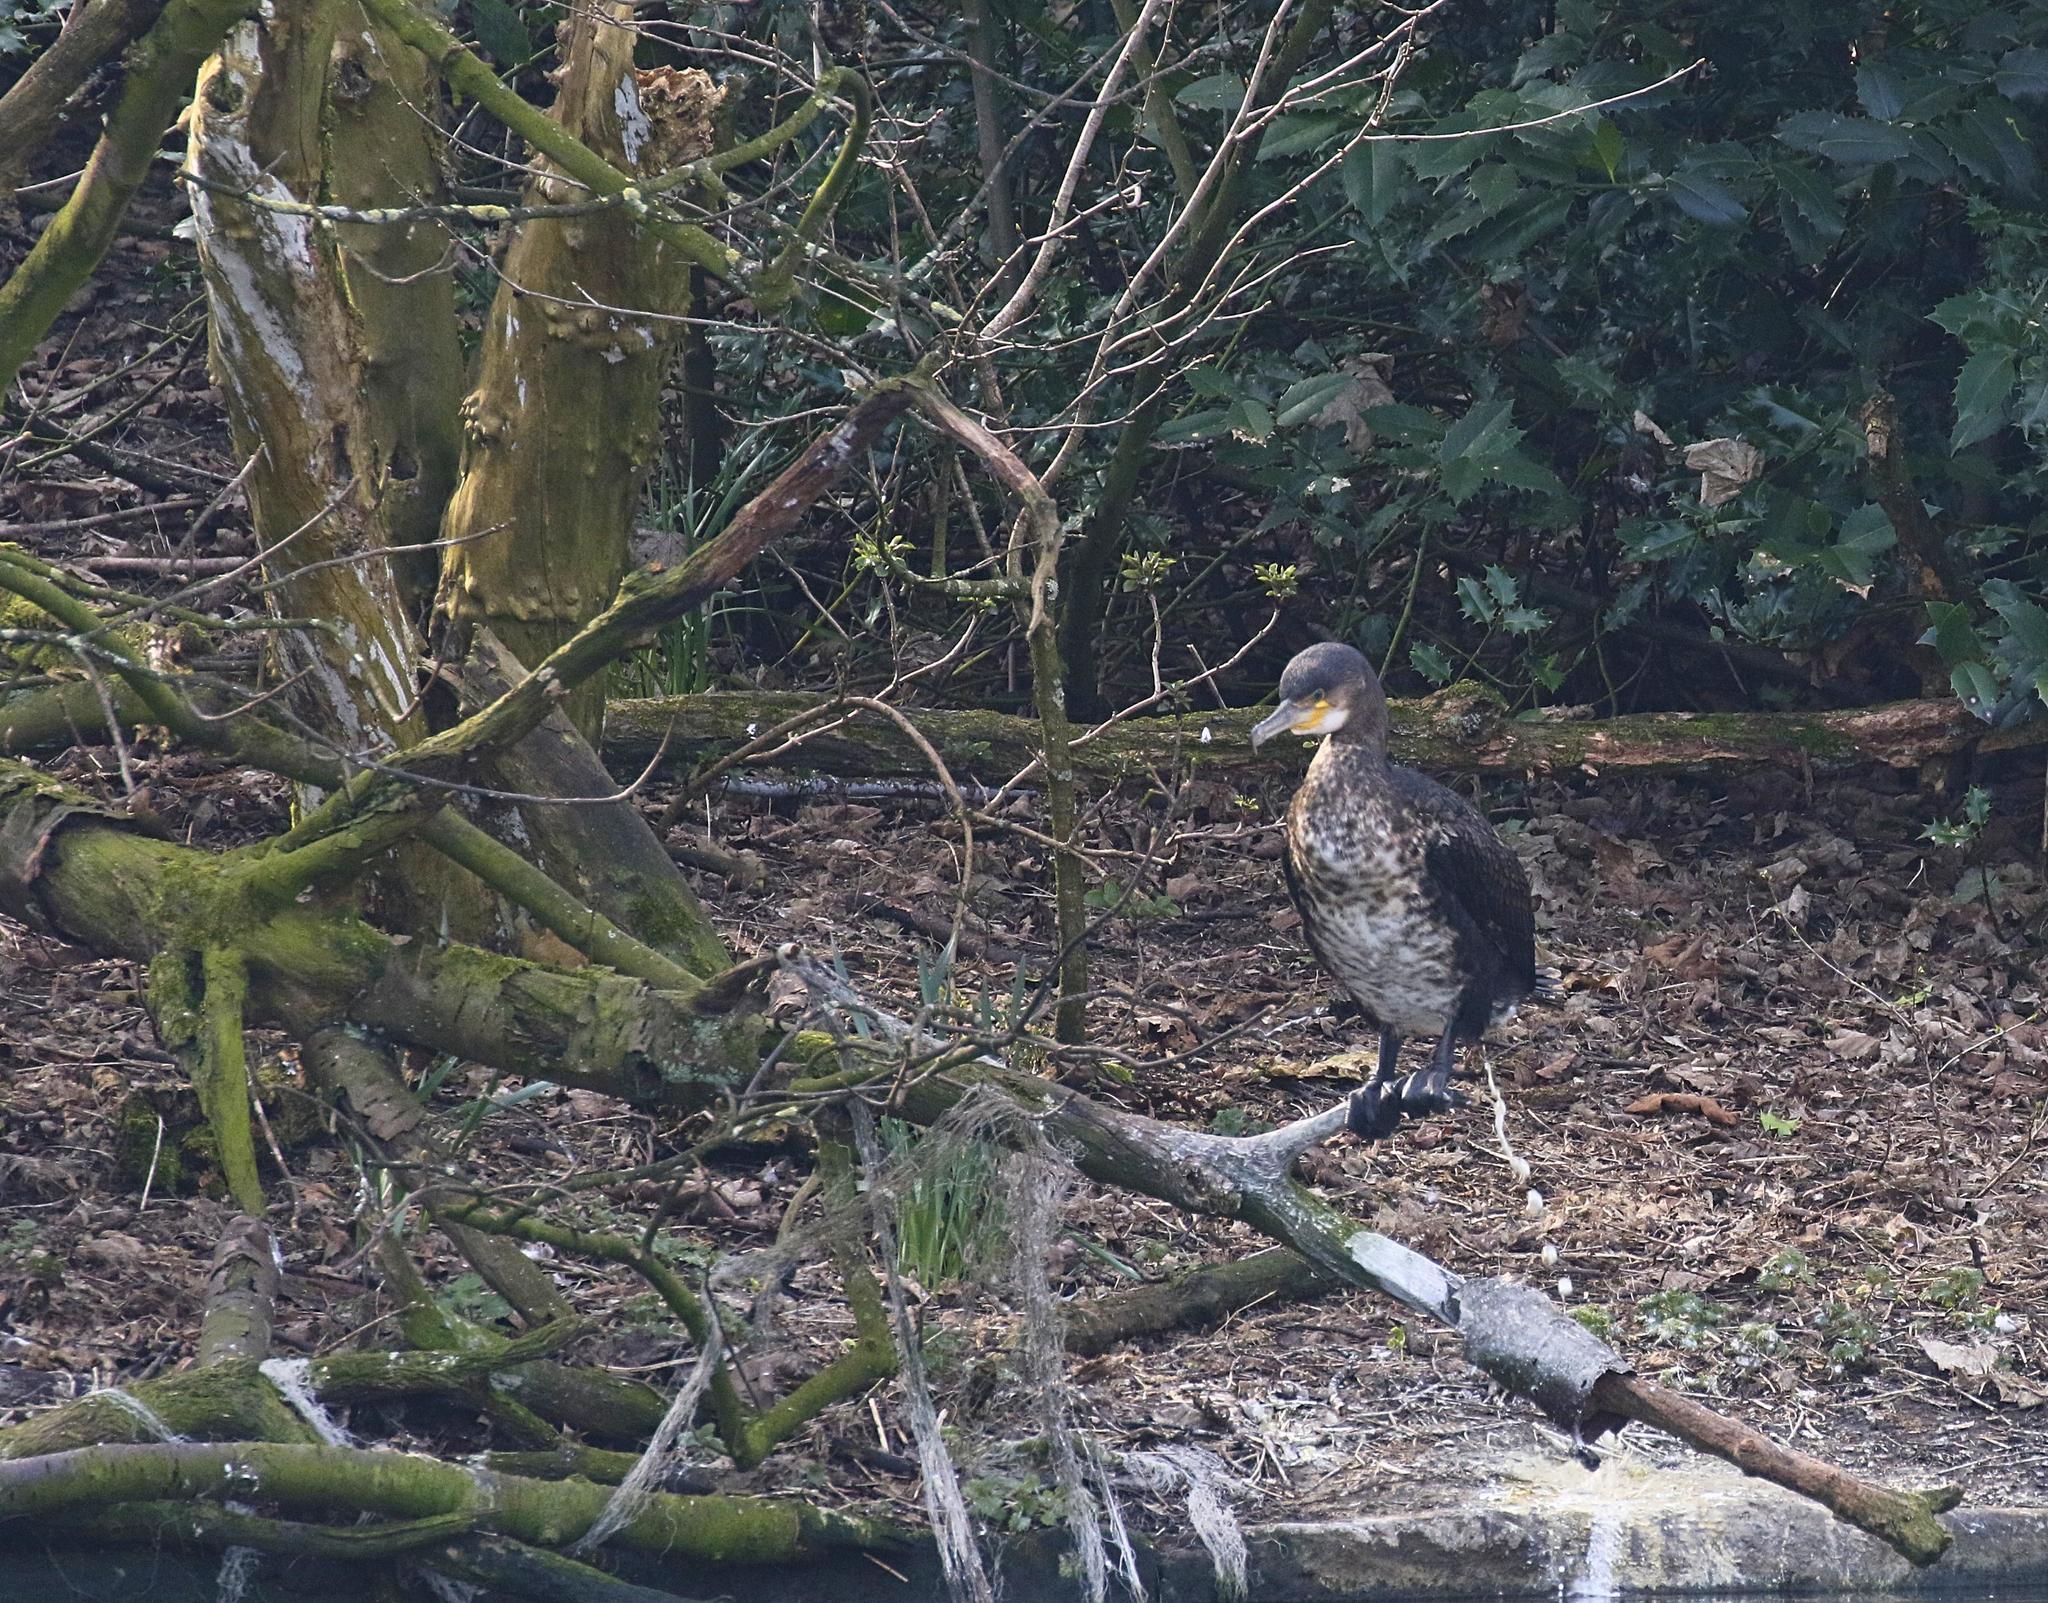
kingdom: Animalia
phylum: Chordata
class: Aves
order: Suliformes
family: Phalacrocoracidae
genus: Phalacrocorax
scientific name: Phalacrocorax carbo
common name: Great cormorant
